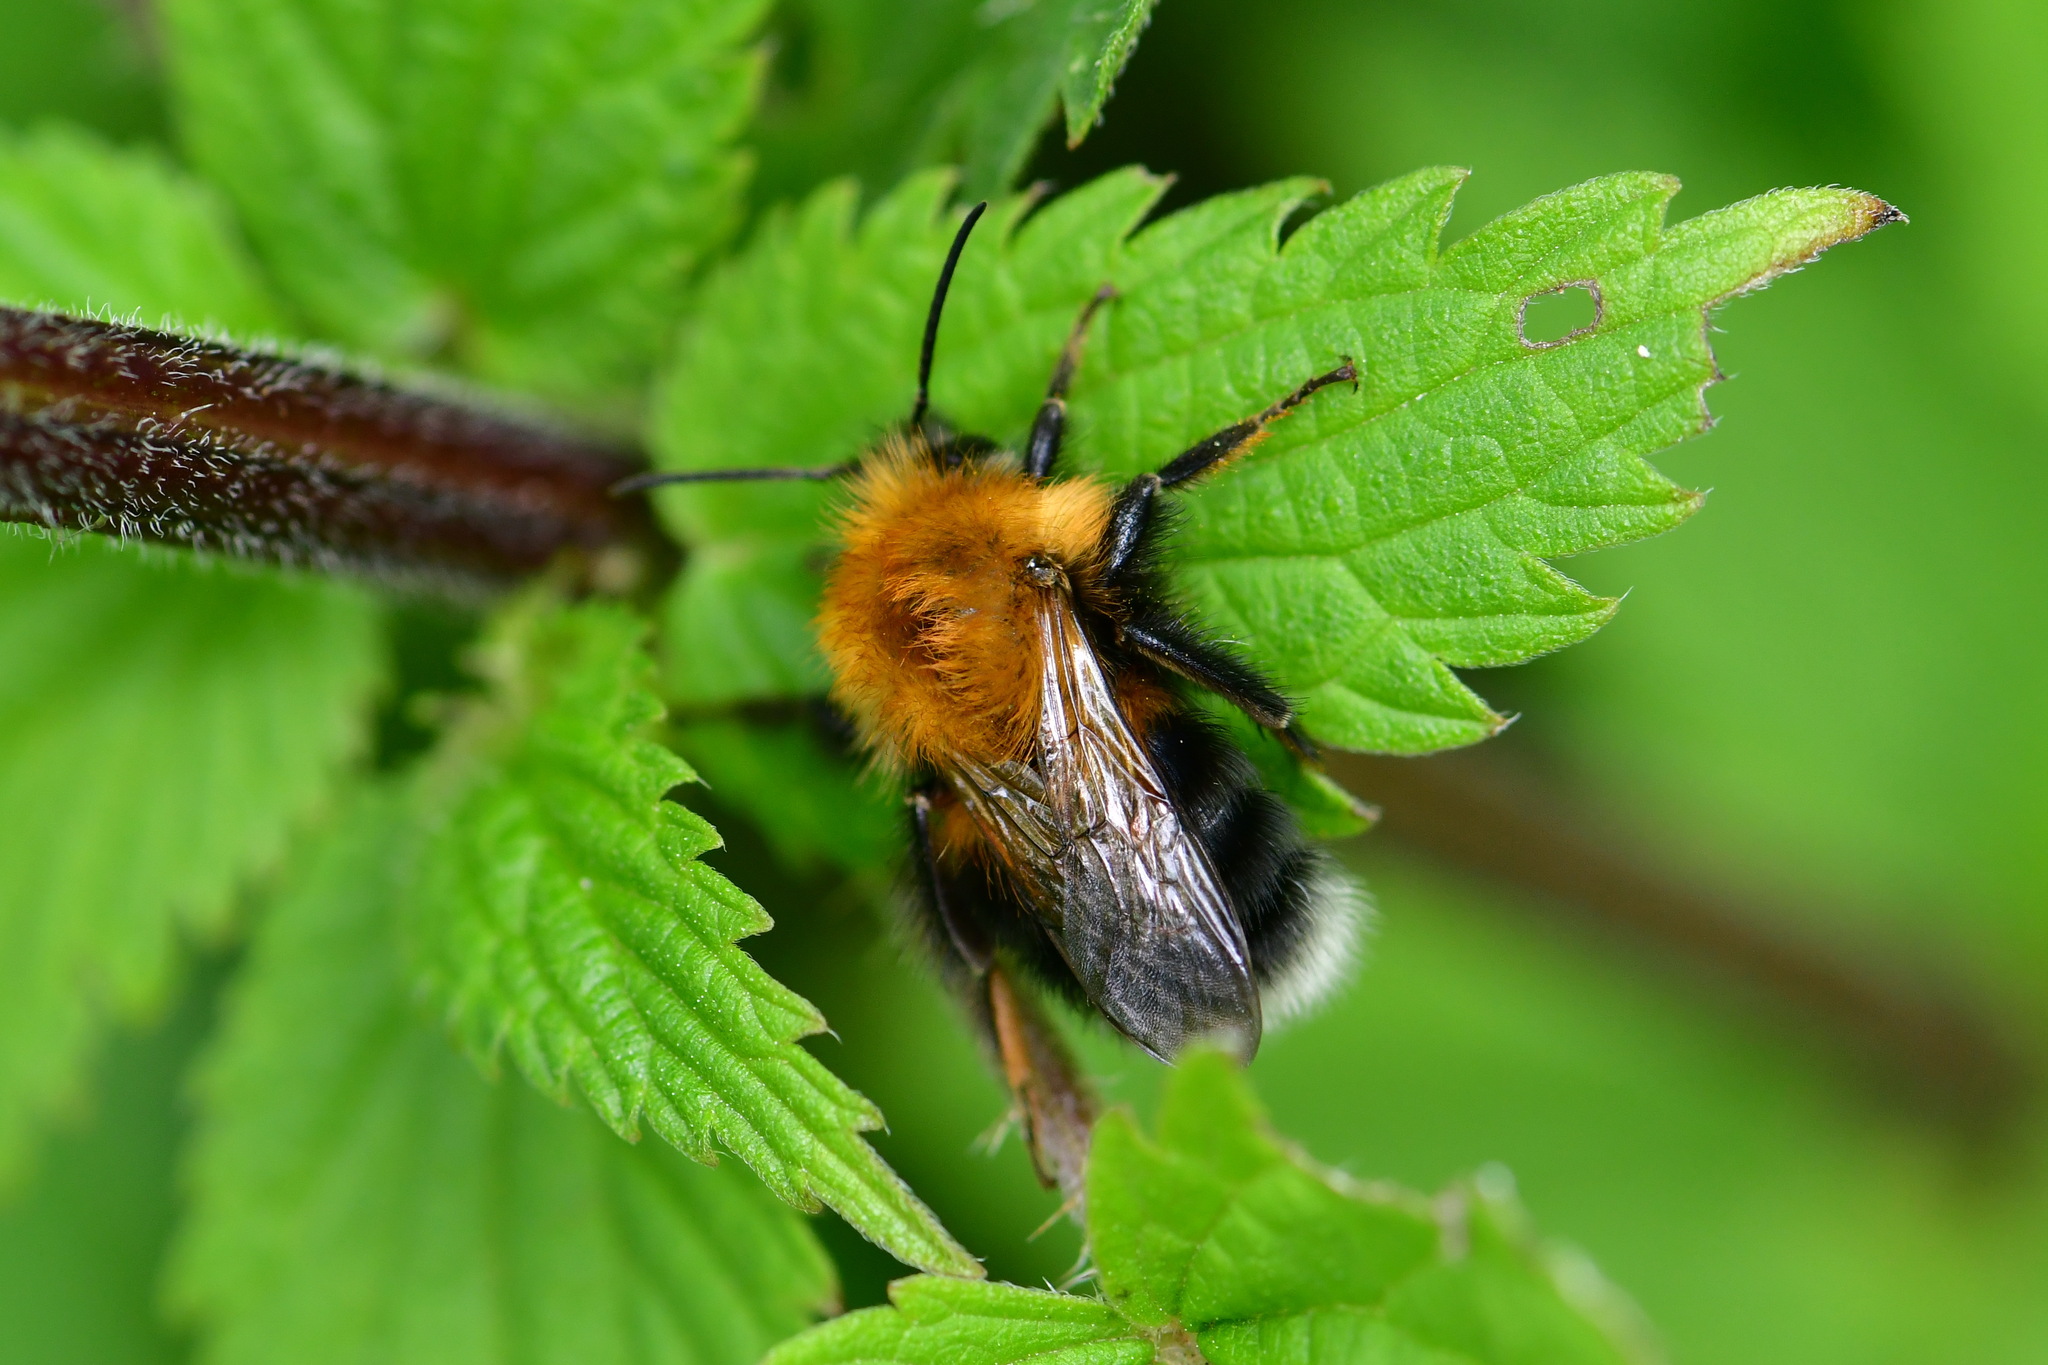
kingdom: Animalia
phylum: Arthropoda
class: Insecta
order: Hymenoptera
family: Apidae
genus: Bombus
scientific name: Bombus hypnorum
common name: New garden bumblebee
